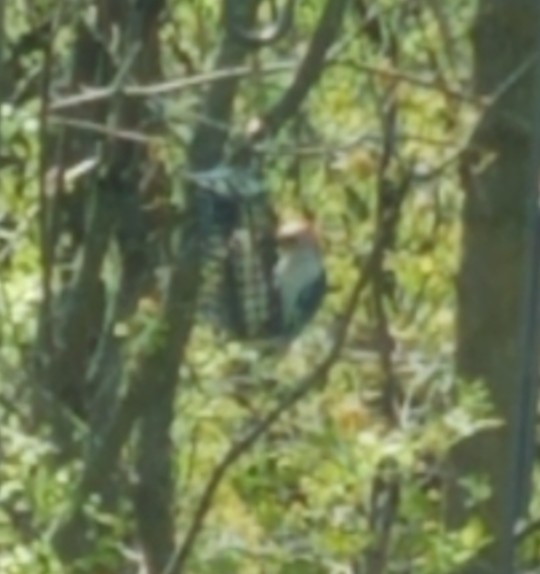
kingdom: Animalia
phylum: Chordata
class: Aves
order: Piciformes
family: Picidae
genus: Melanerpes
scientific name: Melanerpes carolinus
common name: Red-bellied woodpecker
